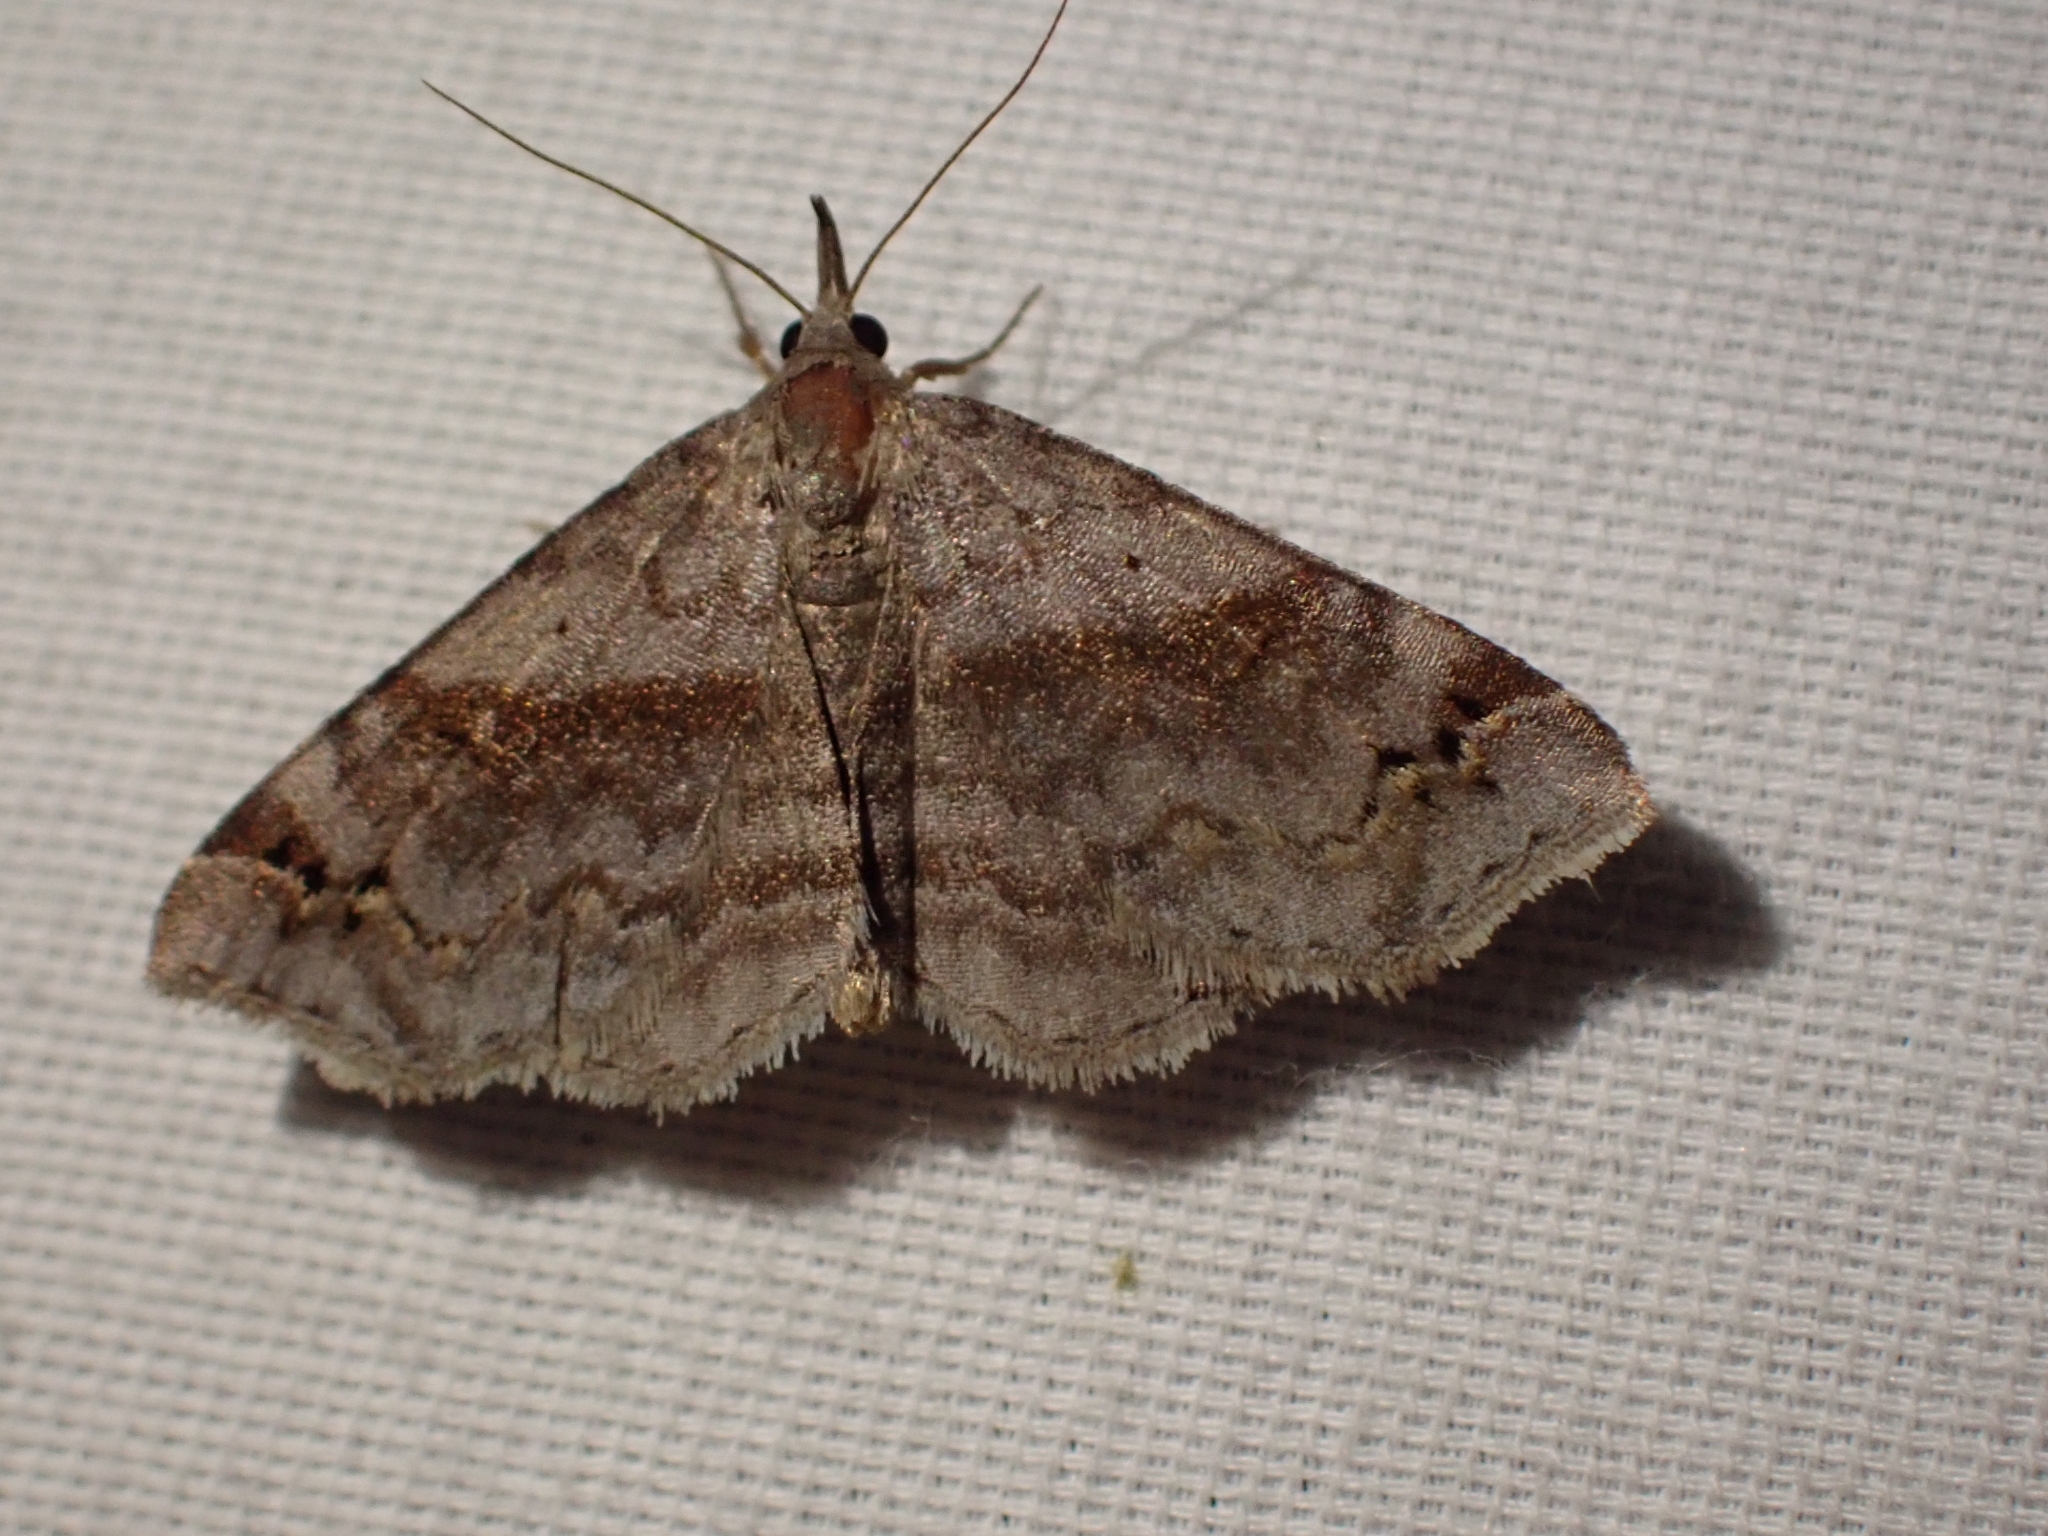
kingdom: Animalia
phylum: Arthropoda
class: Insecta
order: Lepidoptera
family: Erebidae
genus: Spargaloma
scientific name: Spargaloma sexpunctata
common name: Six-spotted gray
